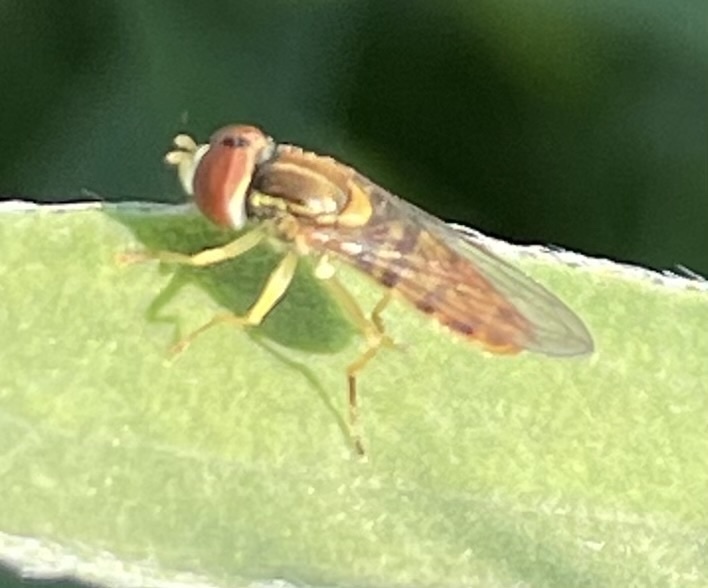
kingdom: Animalia
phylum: Arthropoda
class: Insecta
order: Diptera
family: Syrphidae
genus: Toxomerus
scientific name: Toxomerus marginatus
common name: Syrphid fly
